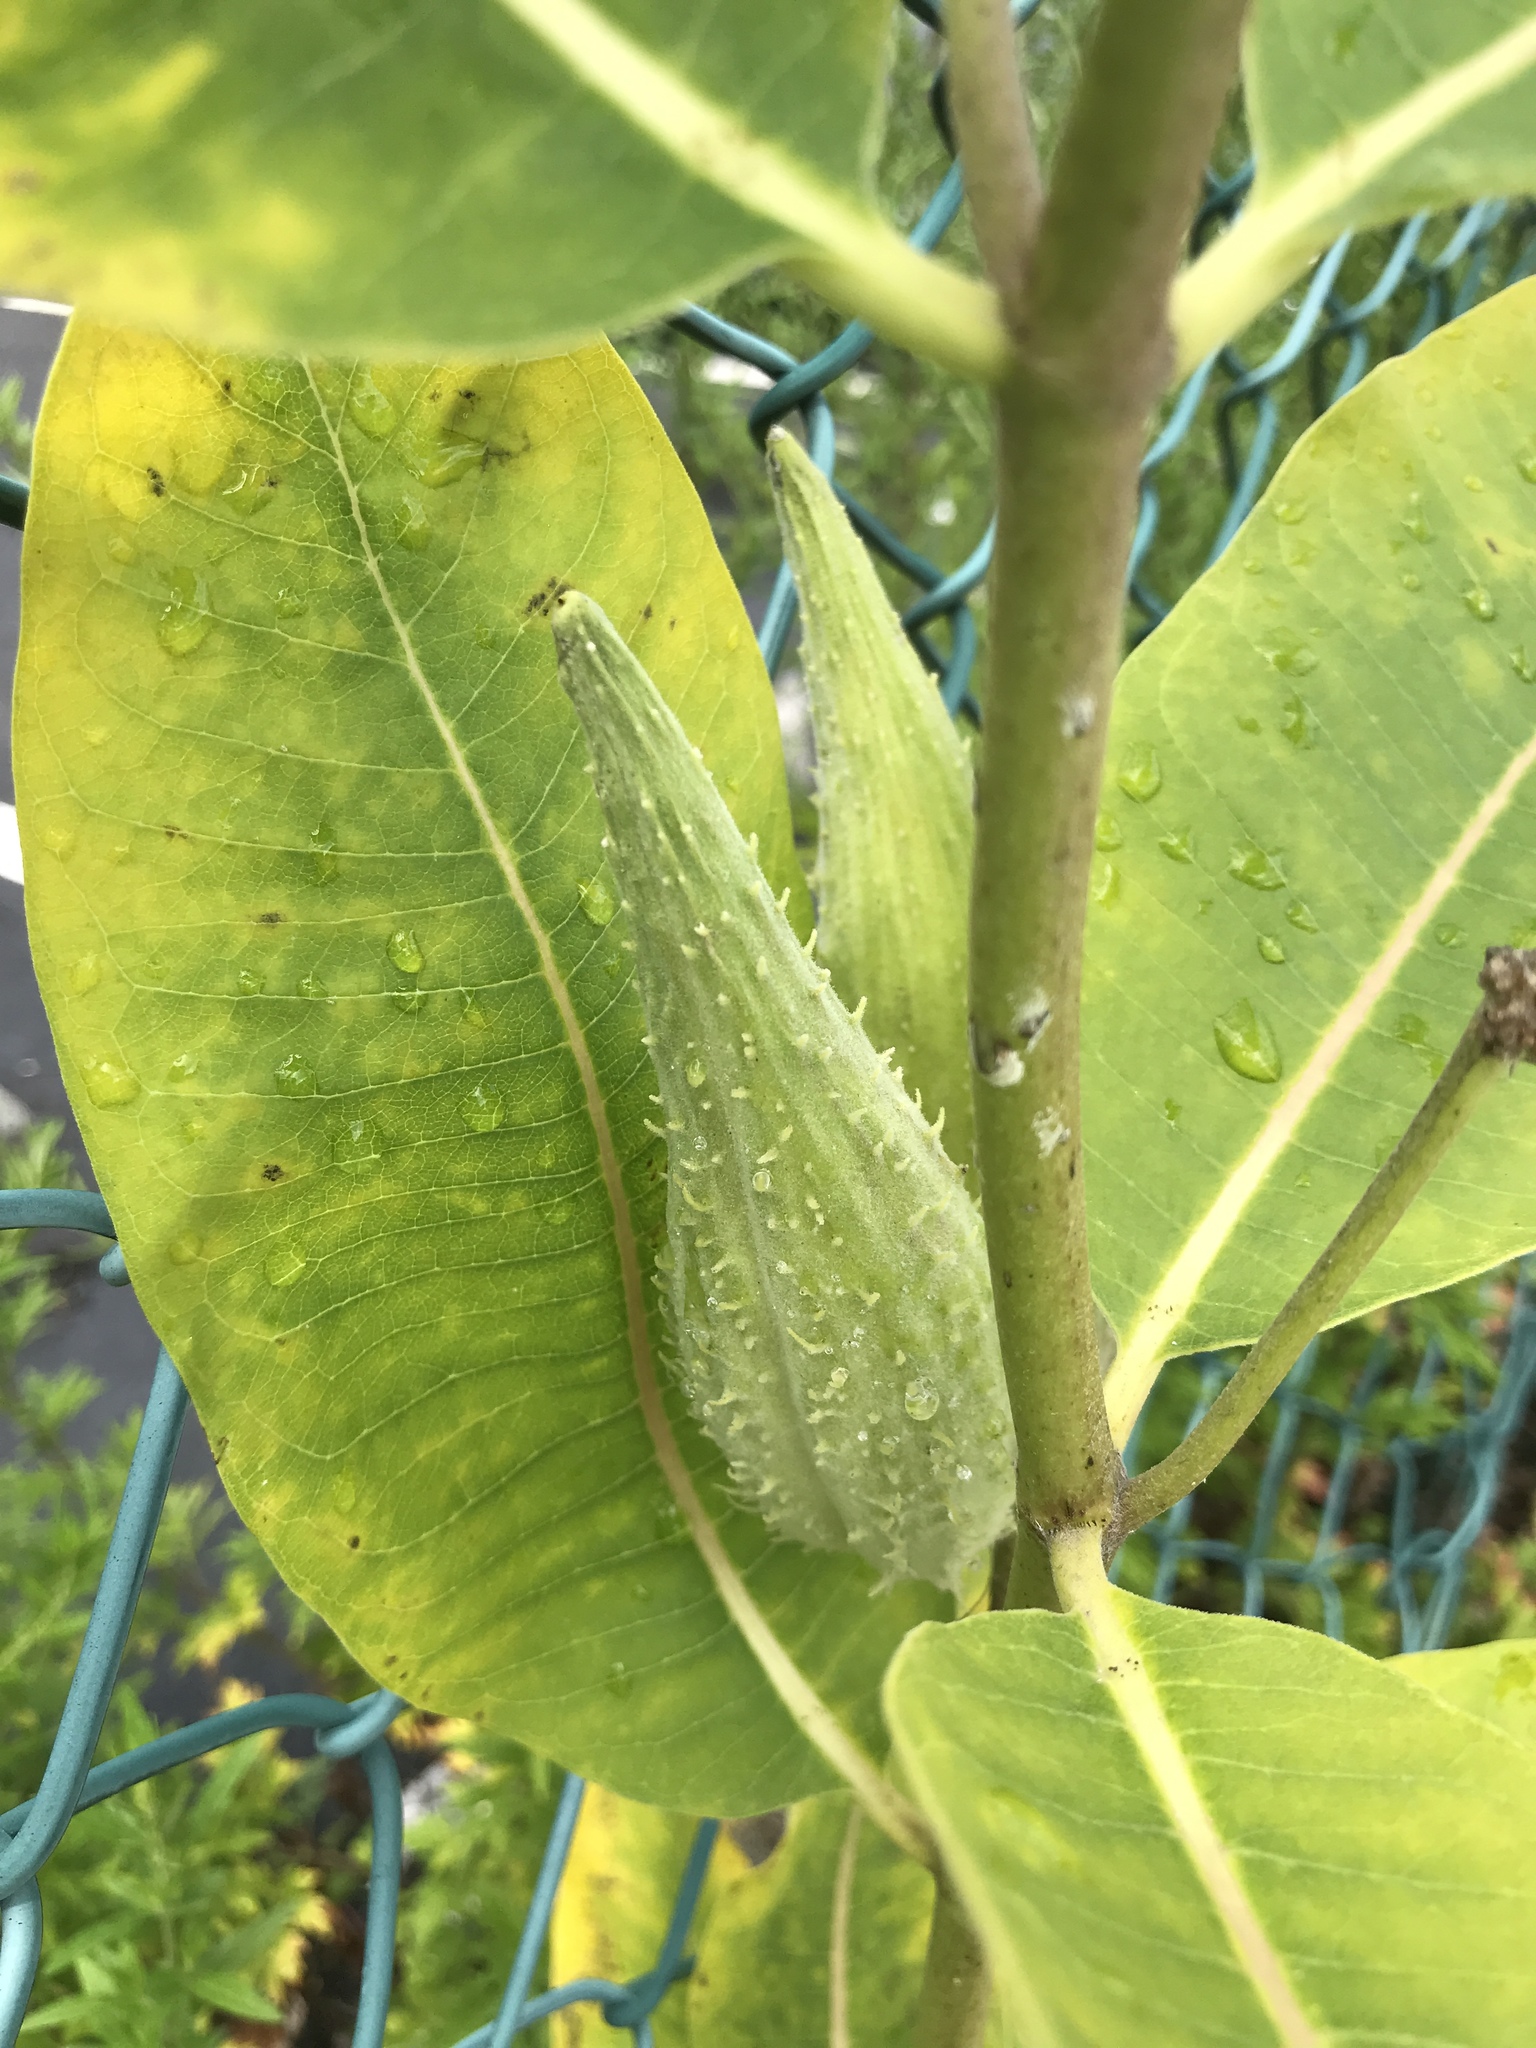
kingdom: Plantae
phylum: Tracheophyta
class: Magnoliopsida
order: Gentianales
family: Apocynaceae
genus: Asclepias
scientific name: Asclepias syriaca
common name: Common milkweed
